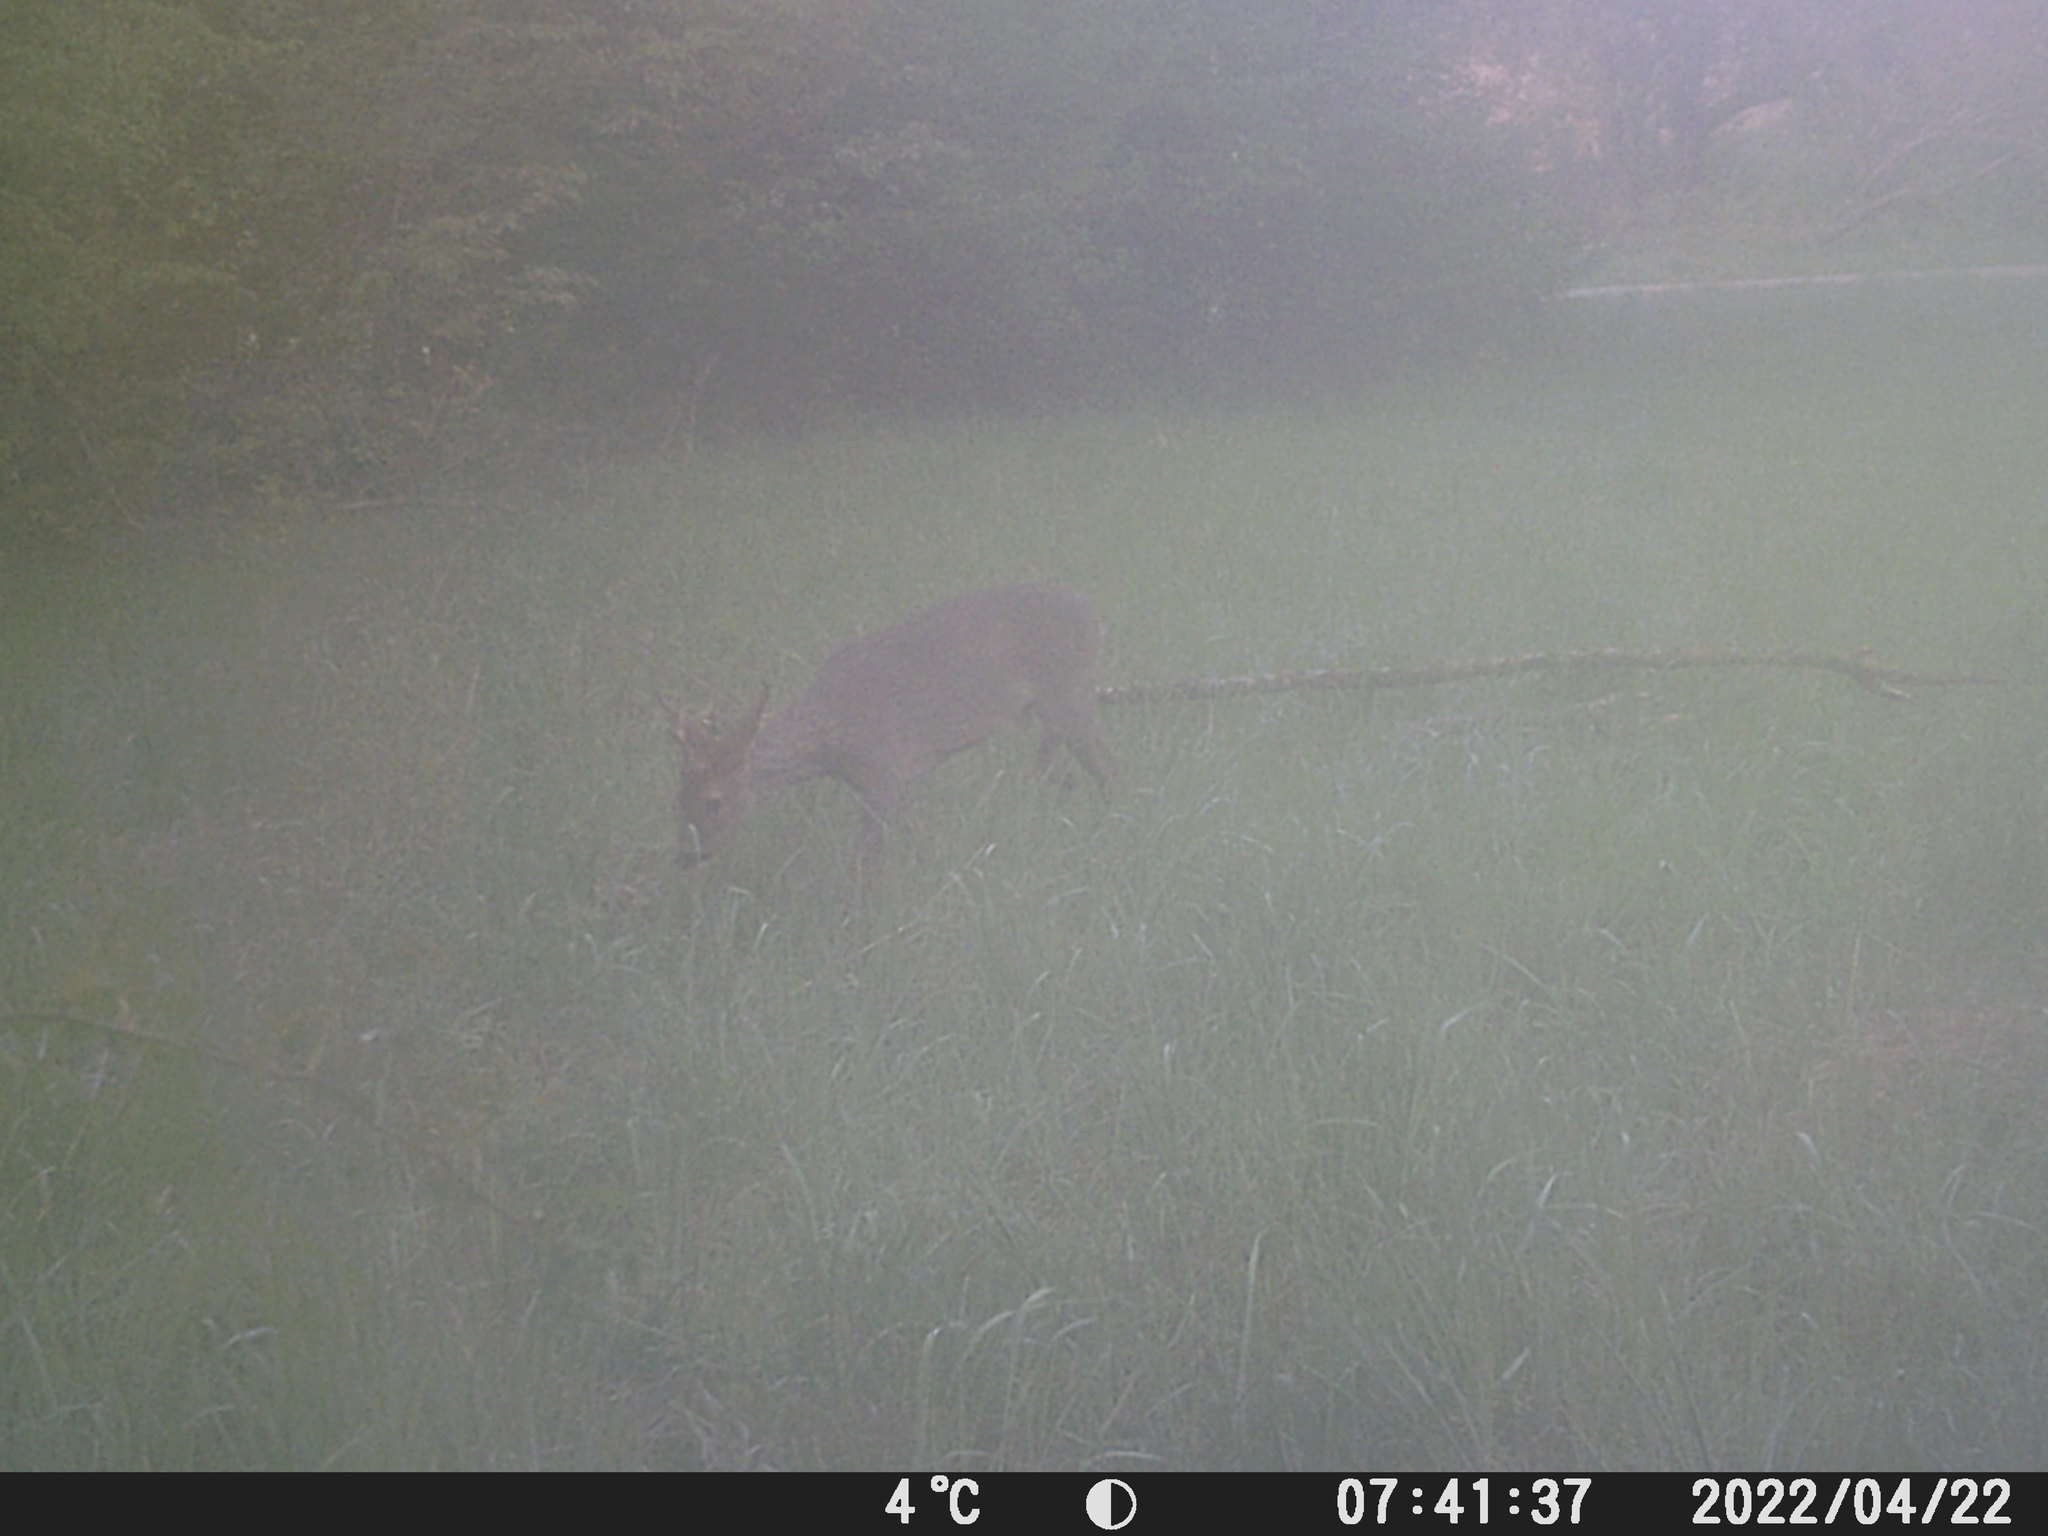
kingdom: Animalia
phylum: Chordata
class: Mammalia
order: Artiodactyla
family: Cervidae
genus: Capreolus
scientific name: Capreolus capreolus
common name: Western roe deer
